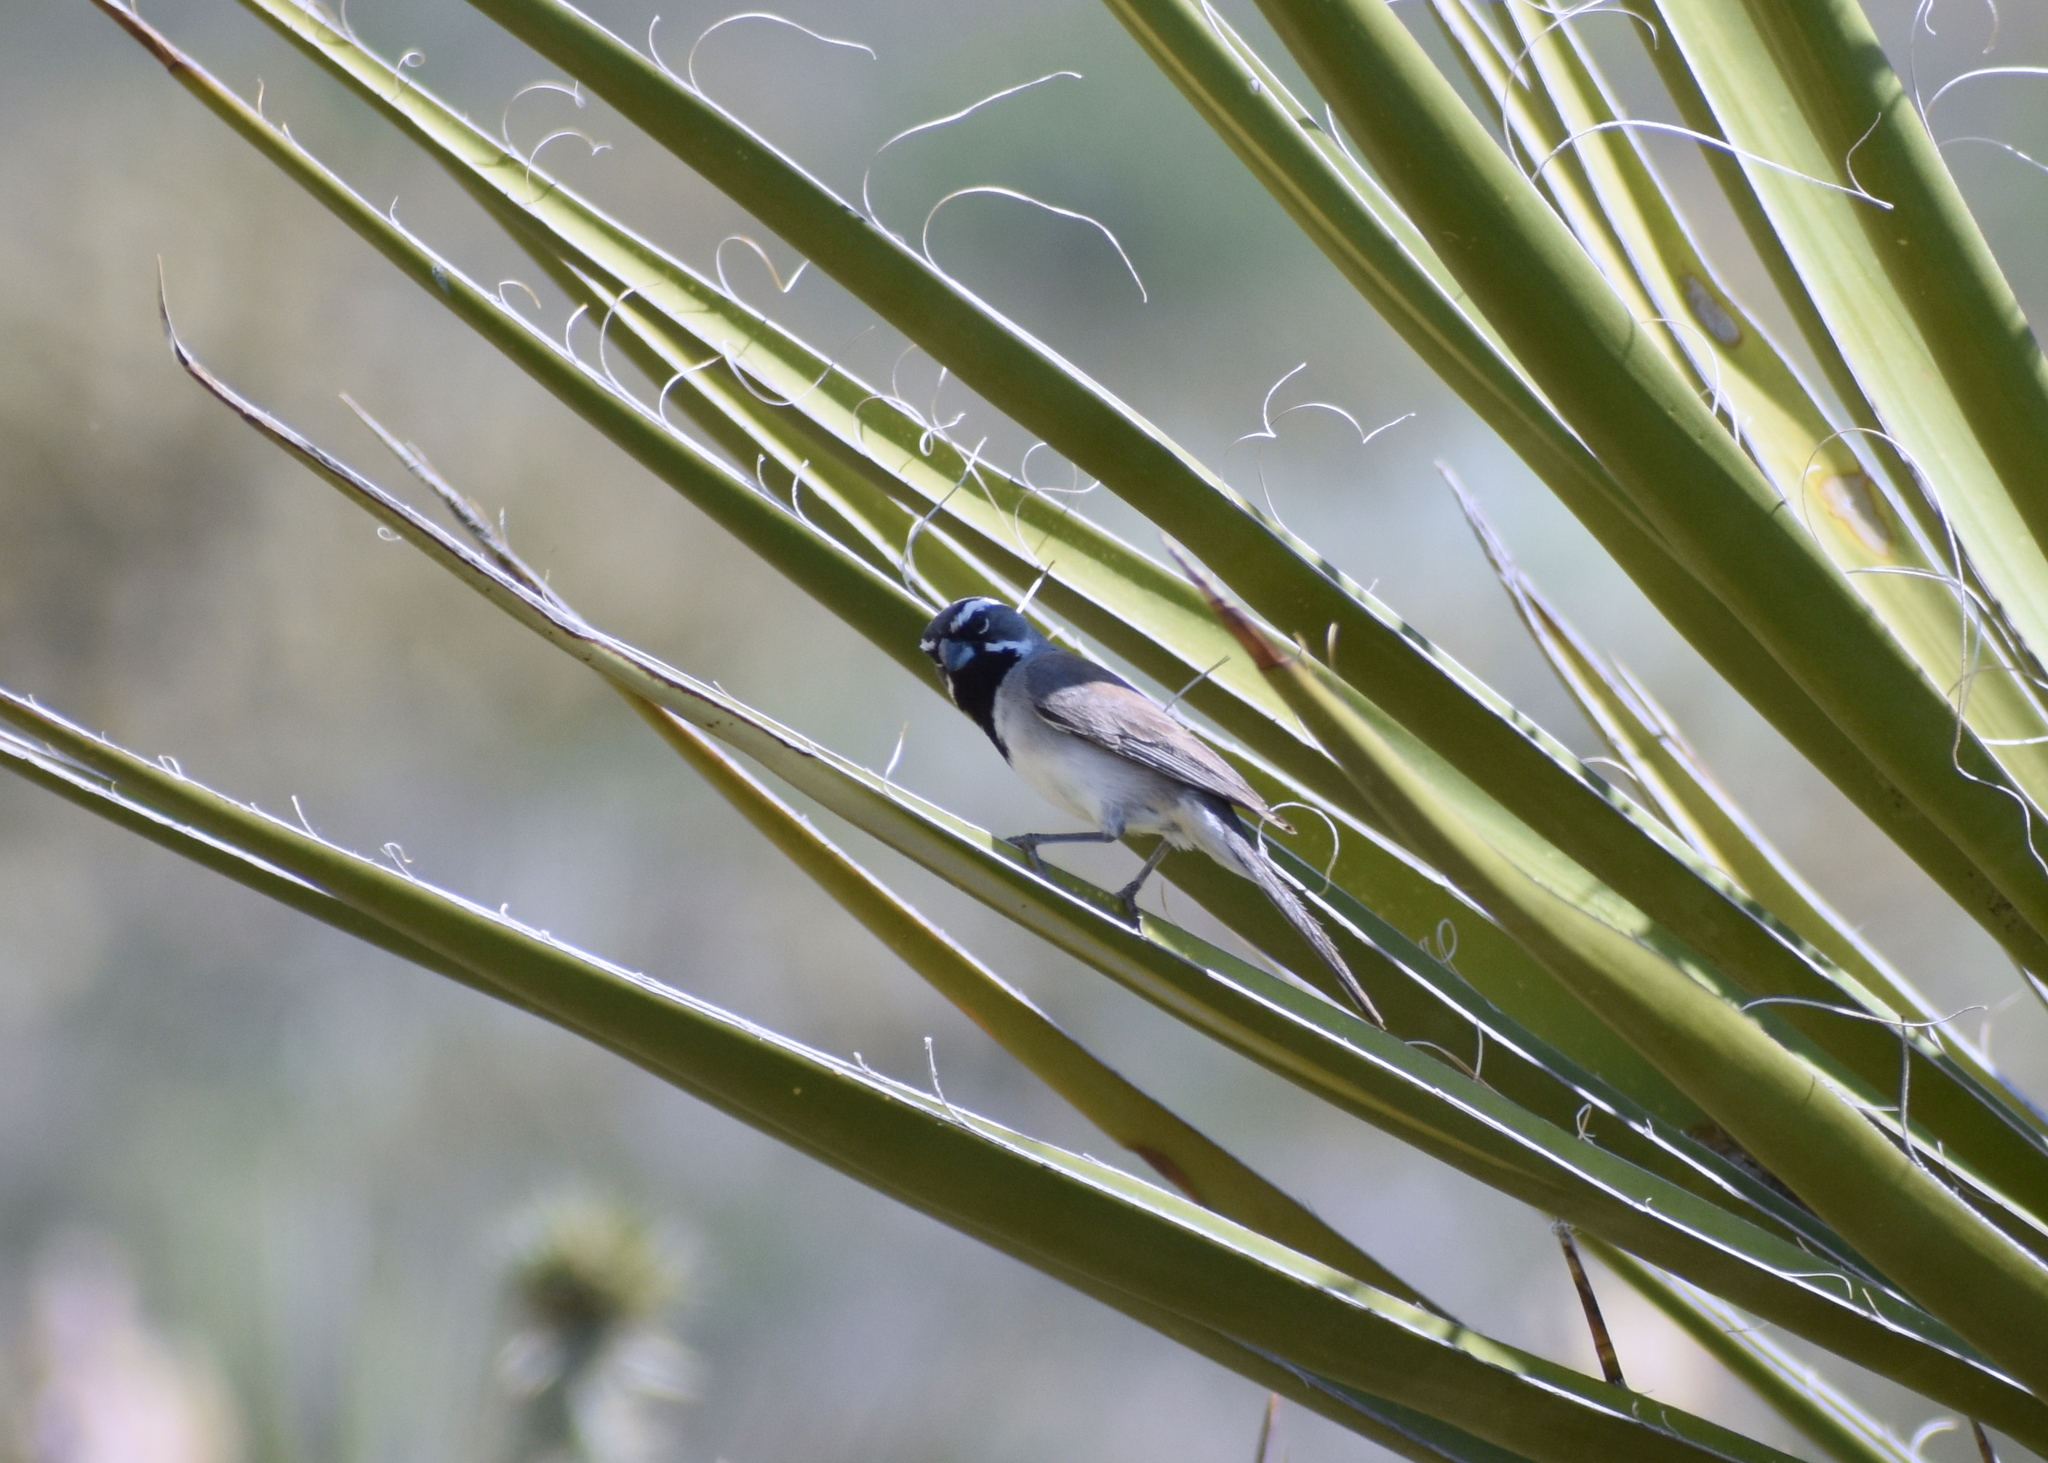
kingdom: Animalia
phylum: Chordata
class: Aves
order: Passeriformes
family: Passerellidae
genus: Amphispiza
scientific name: Amphispiza bilineata
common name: Black-throated sparrow
